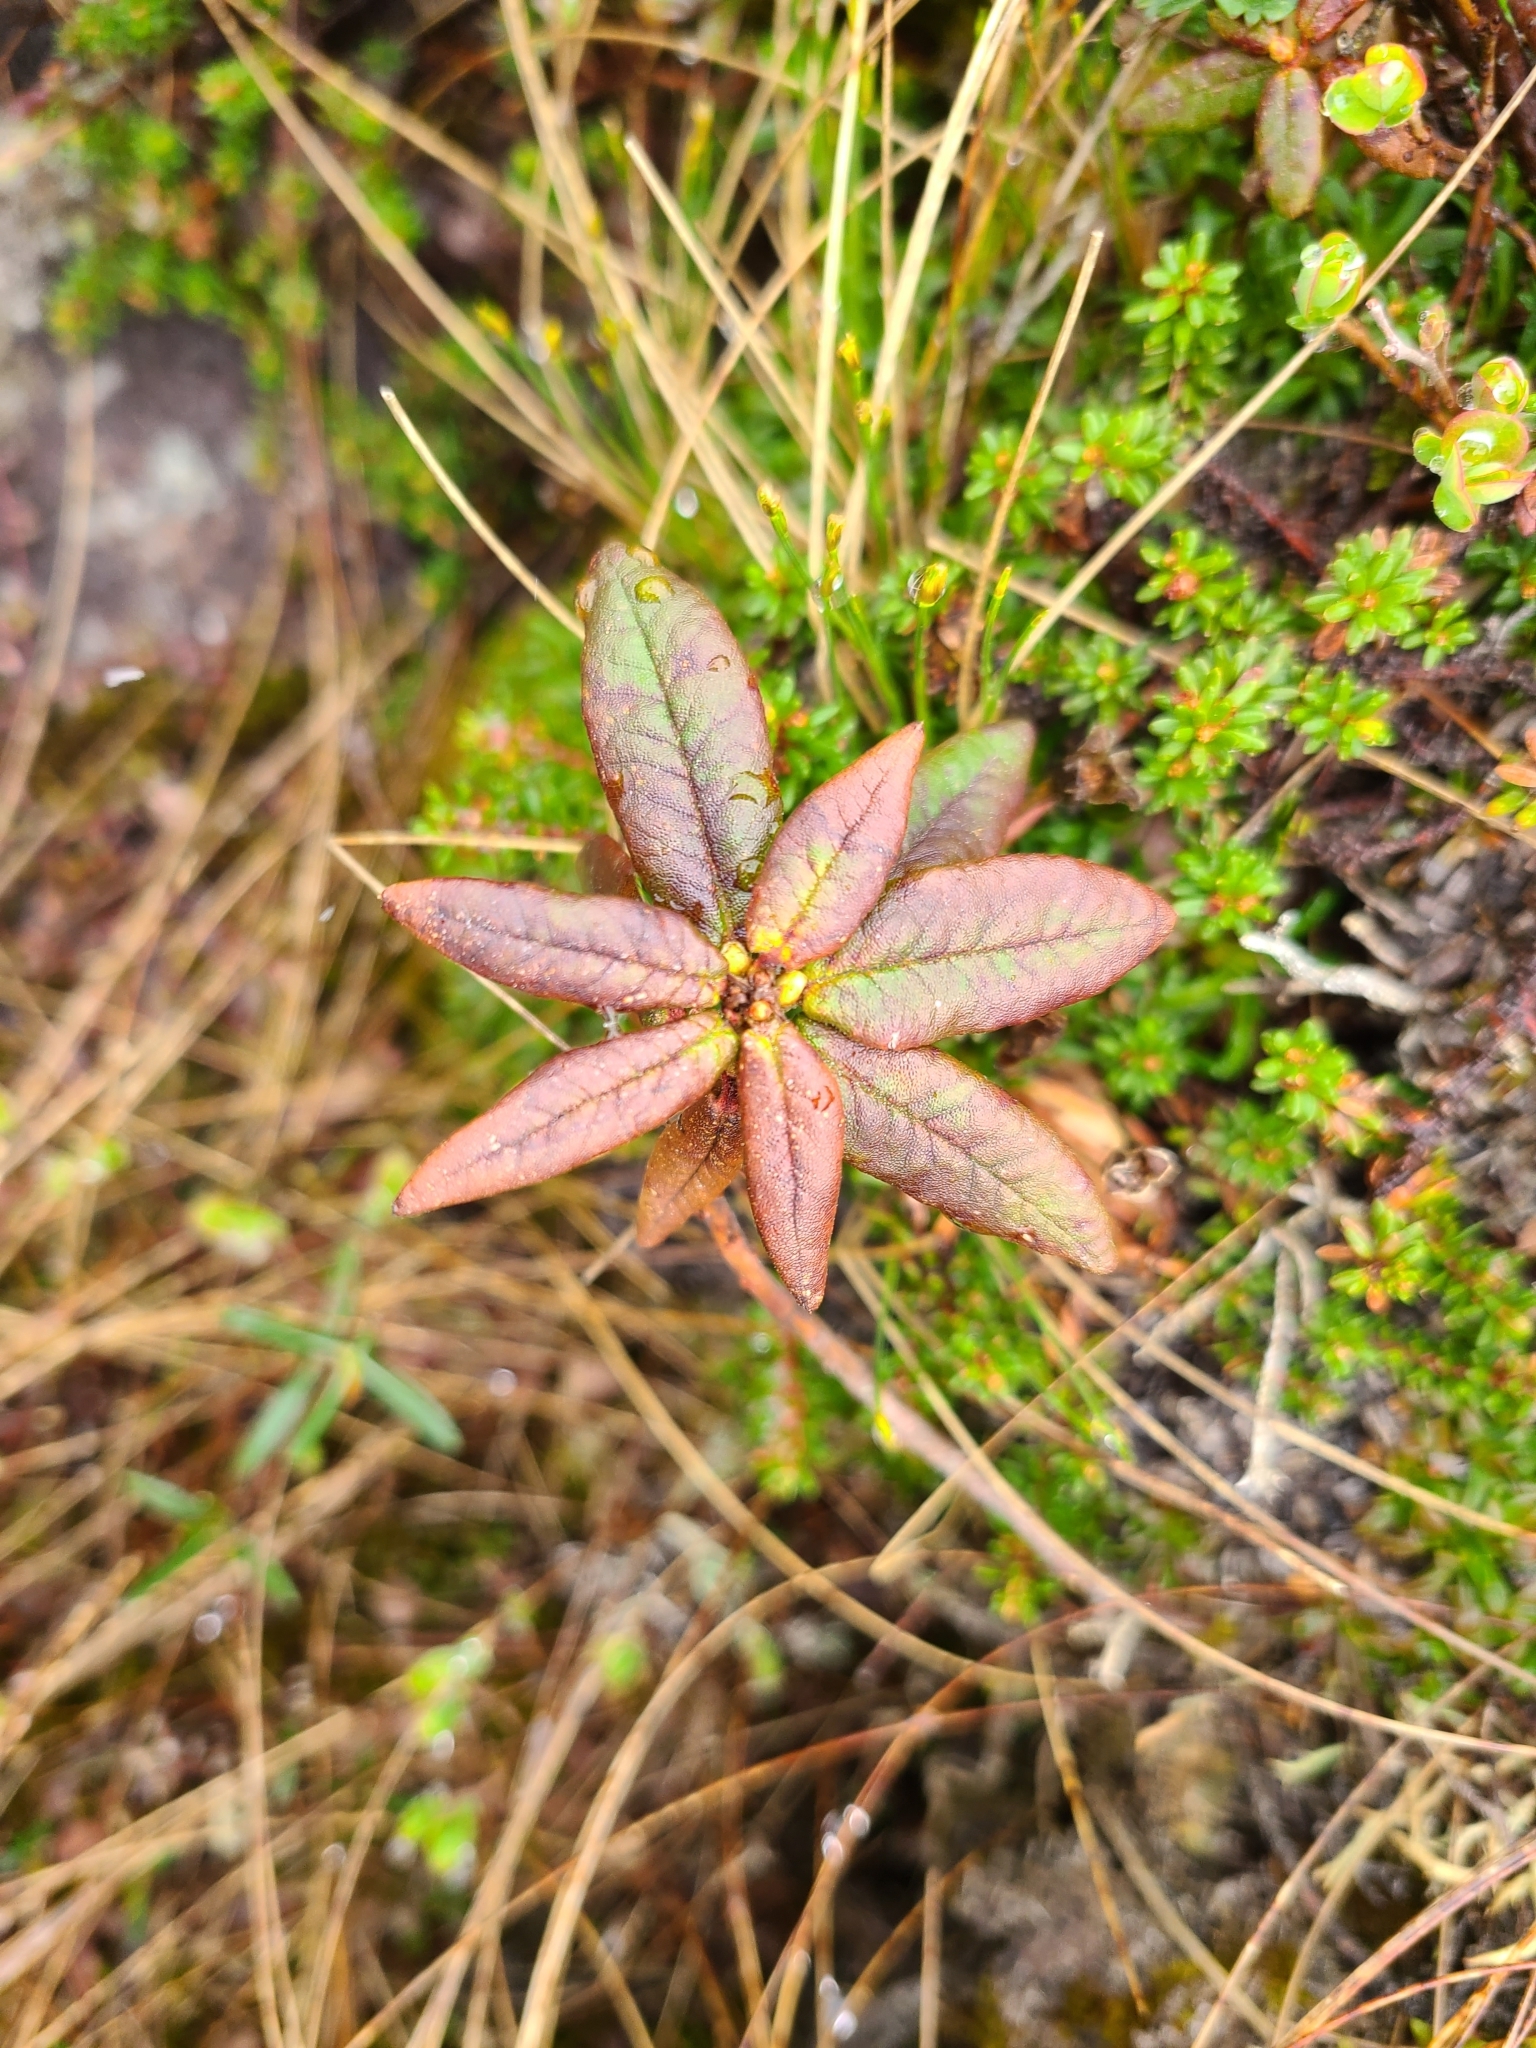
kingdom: Plantae
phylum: Tracheophyta
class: Magnoliopsida
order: Ericales
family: Ericaceae
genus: Rhododendron
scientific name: Rhododendron groenlandicum
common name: Bog labrador tea
